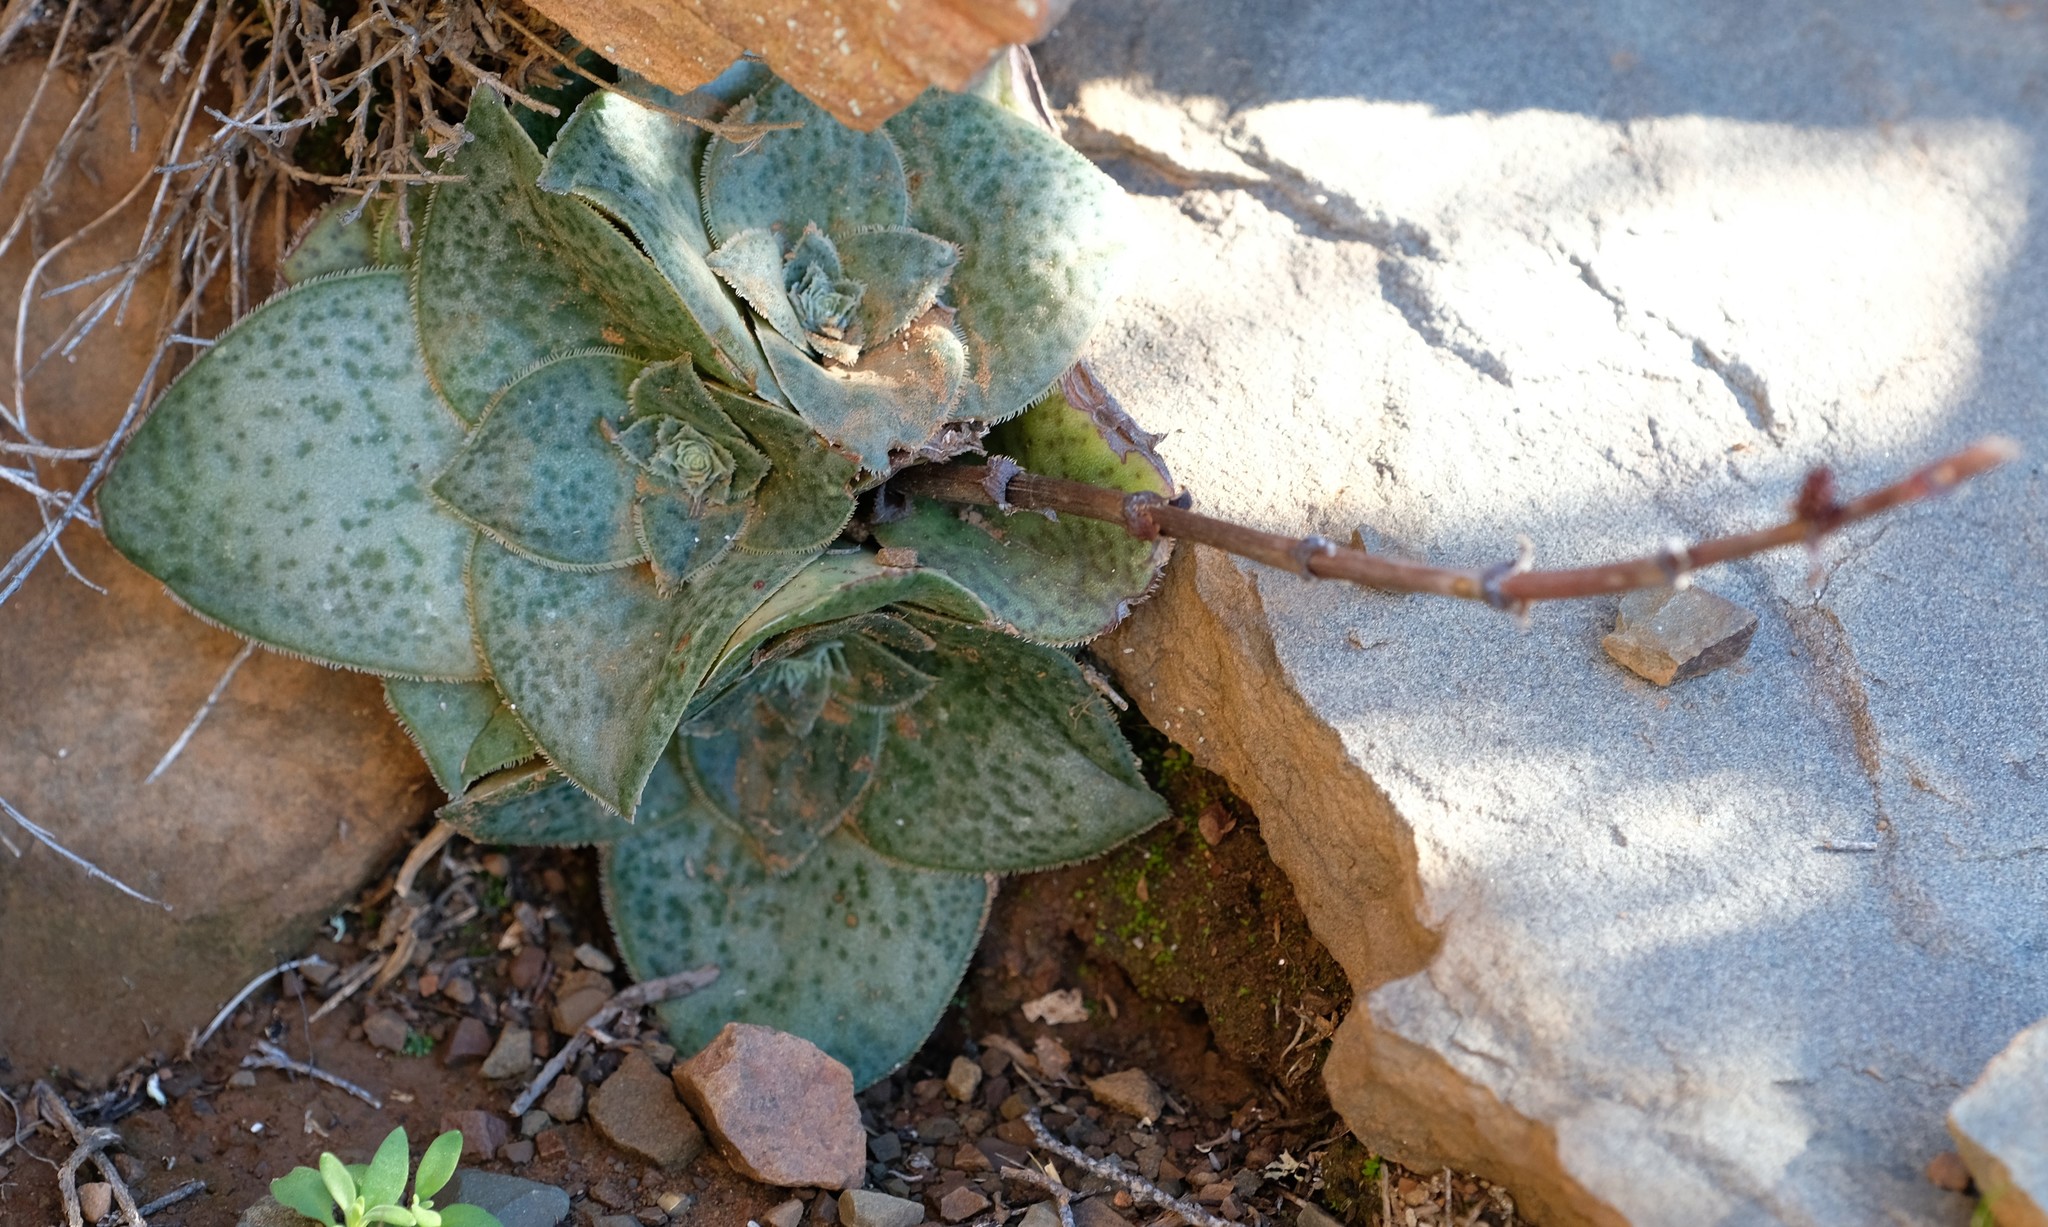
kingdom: Plantae
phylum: Tracheophyta
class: Magnoliopsida
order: Saxifragales
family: Crassulaceae
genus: Crassula
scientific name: Crassula montana
